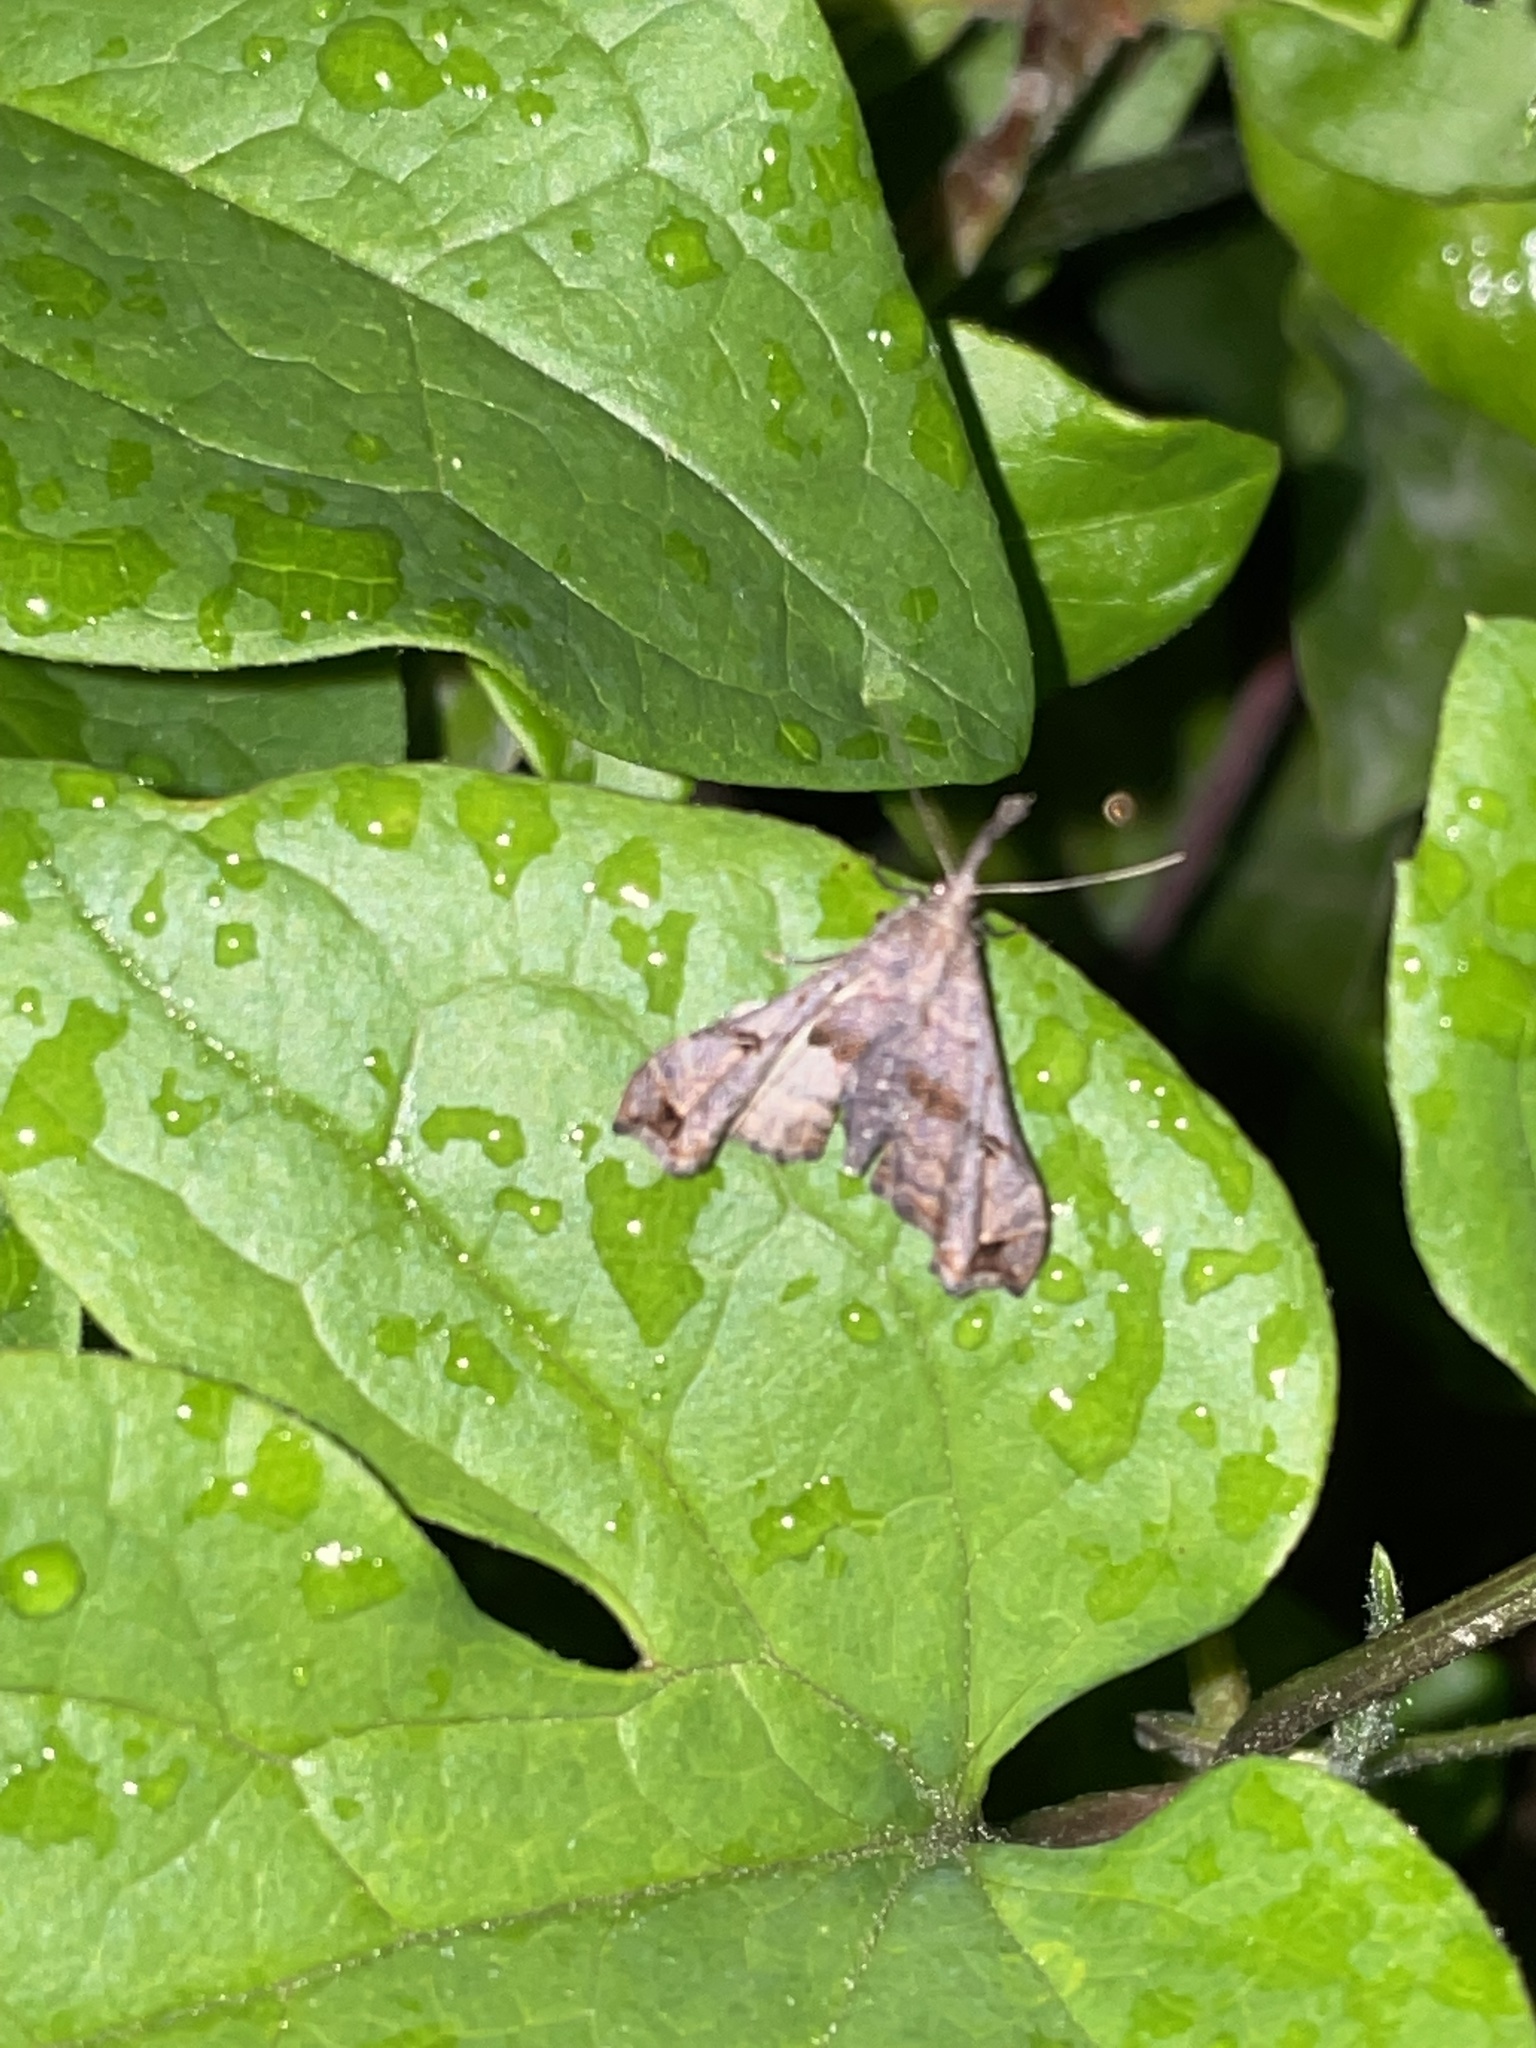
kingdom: Animalia
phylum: Arthropoda
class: Insecta
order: Lepidoptera
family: Erebidae
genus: Palthis
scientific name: Palthis asopialis
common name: Faint-spotted palthis moth
